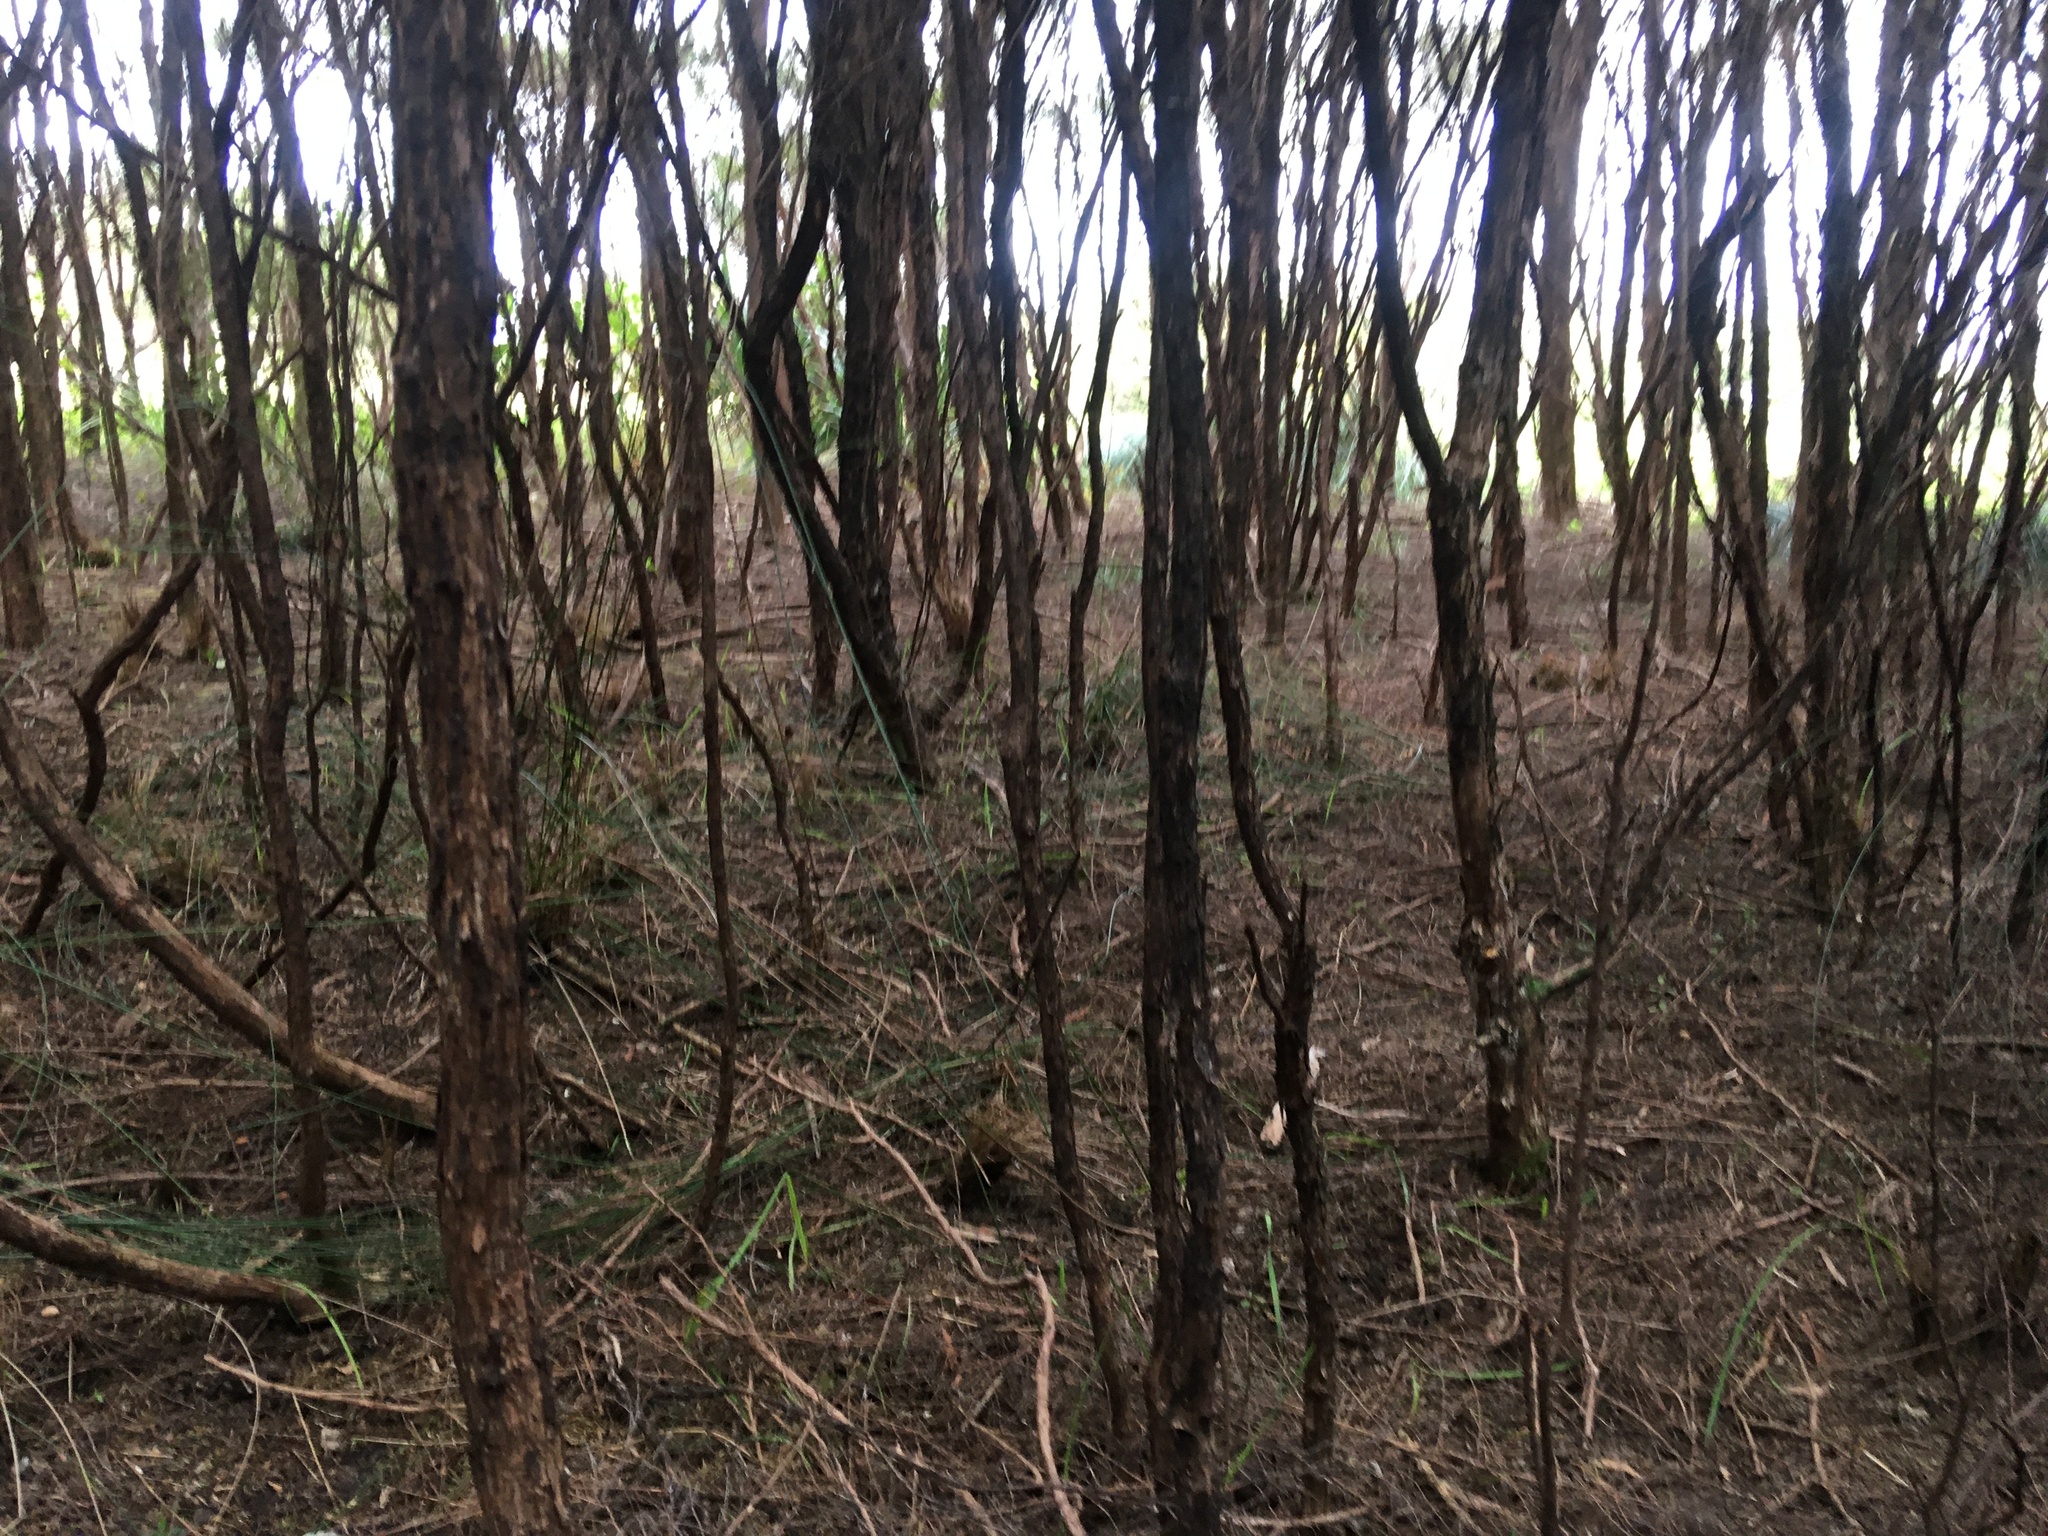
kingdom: Plantae
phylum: Tracheophyta
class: Liliopsida
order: Asparagales
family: Asparagaceae
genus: Dracaena
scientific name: Dracaena draco
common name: Canary island dragon tree
